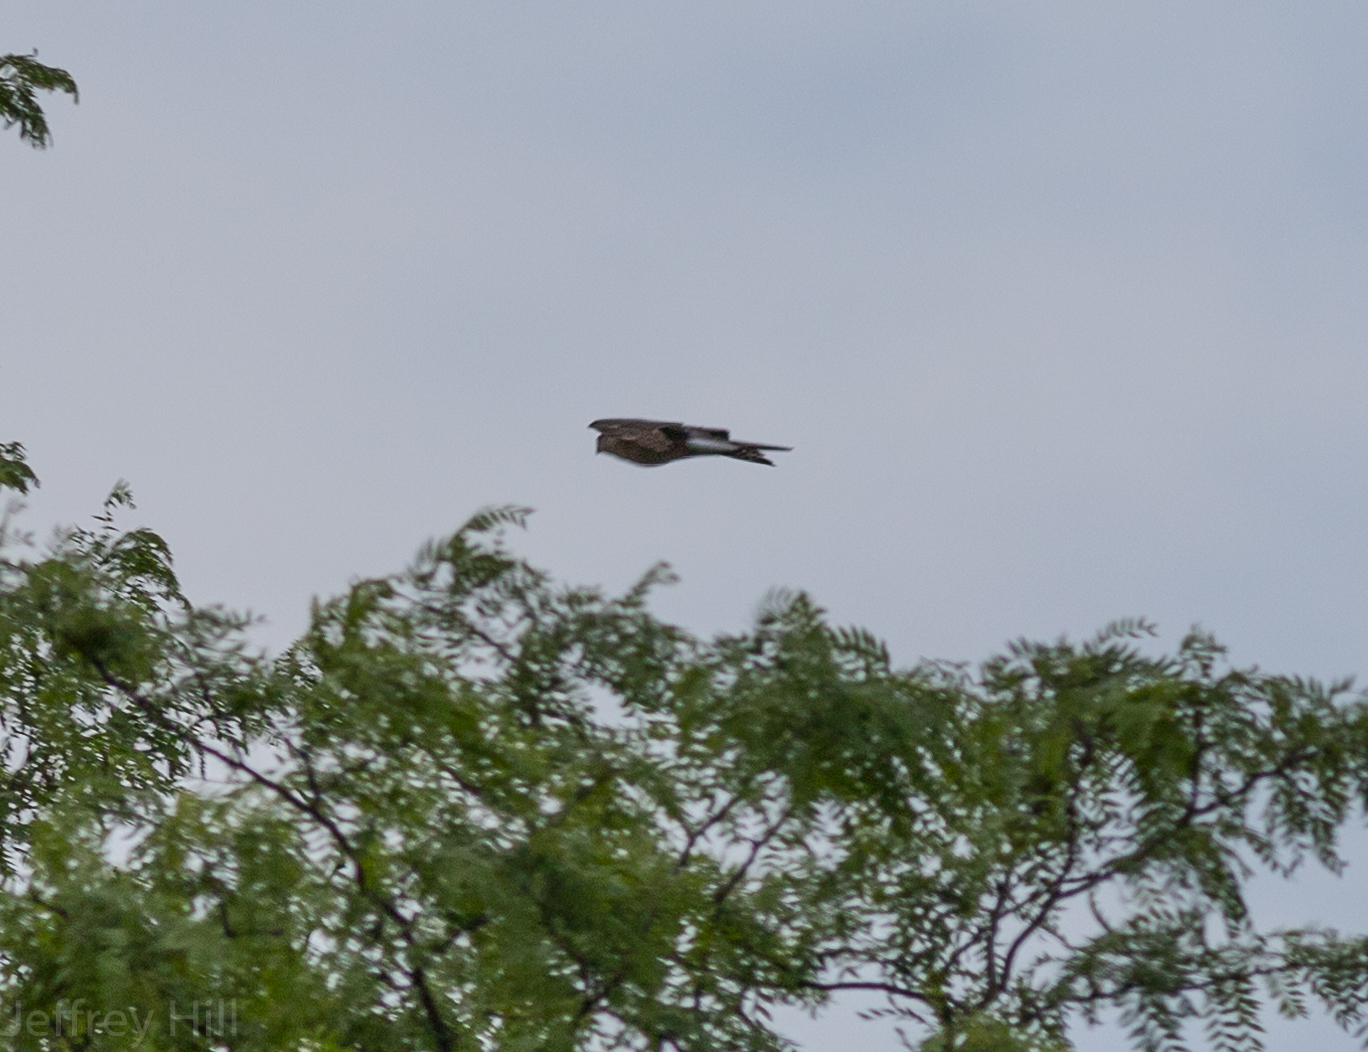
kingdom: Animalia
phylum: Chordata
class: Aves
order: Accipitriformes
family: Accipitridae
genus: Accipiter
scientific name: Accipiter cooperii
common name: Cooper's hawk
